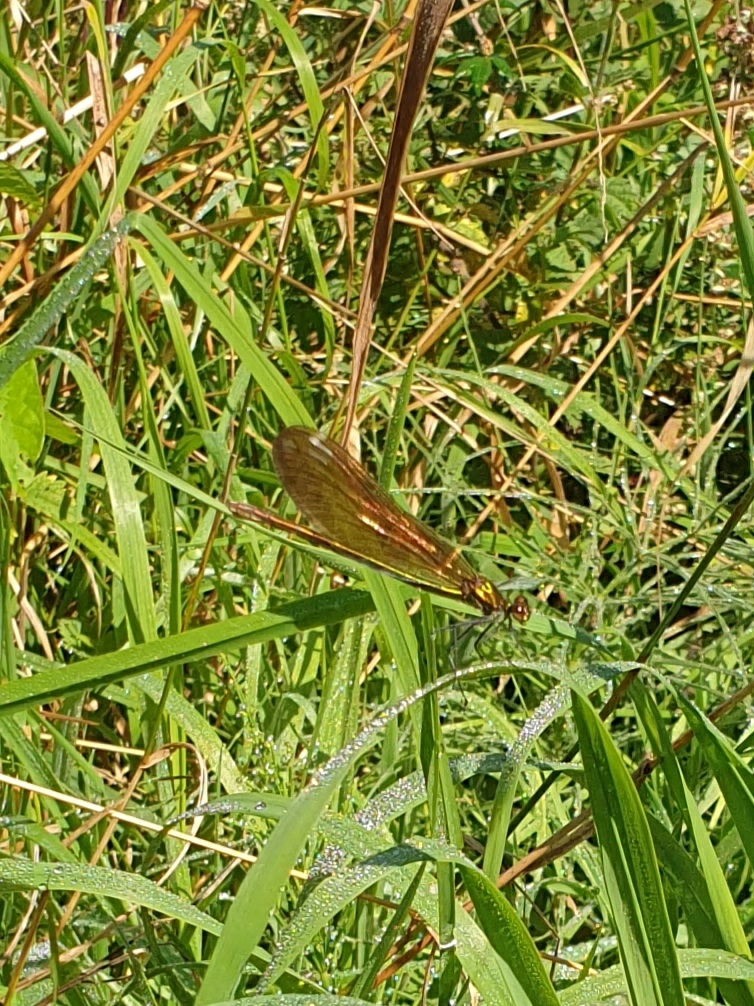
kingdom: Animalia
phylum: Arthropoda
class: Insecta
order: Odonata
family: Calopterygidae
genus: Calopteryx
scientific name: Calopteryx virgo
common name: Beautiful demoiselle
